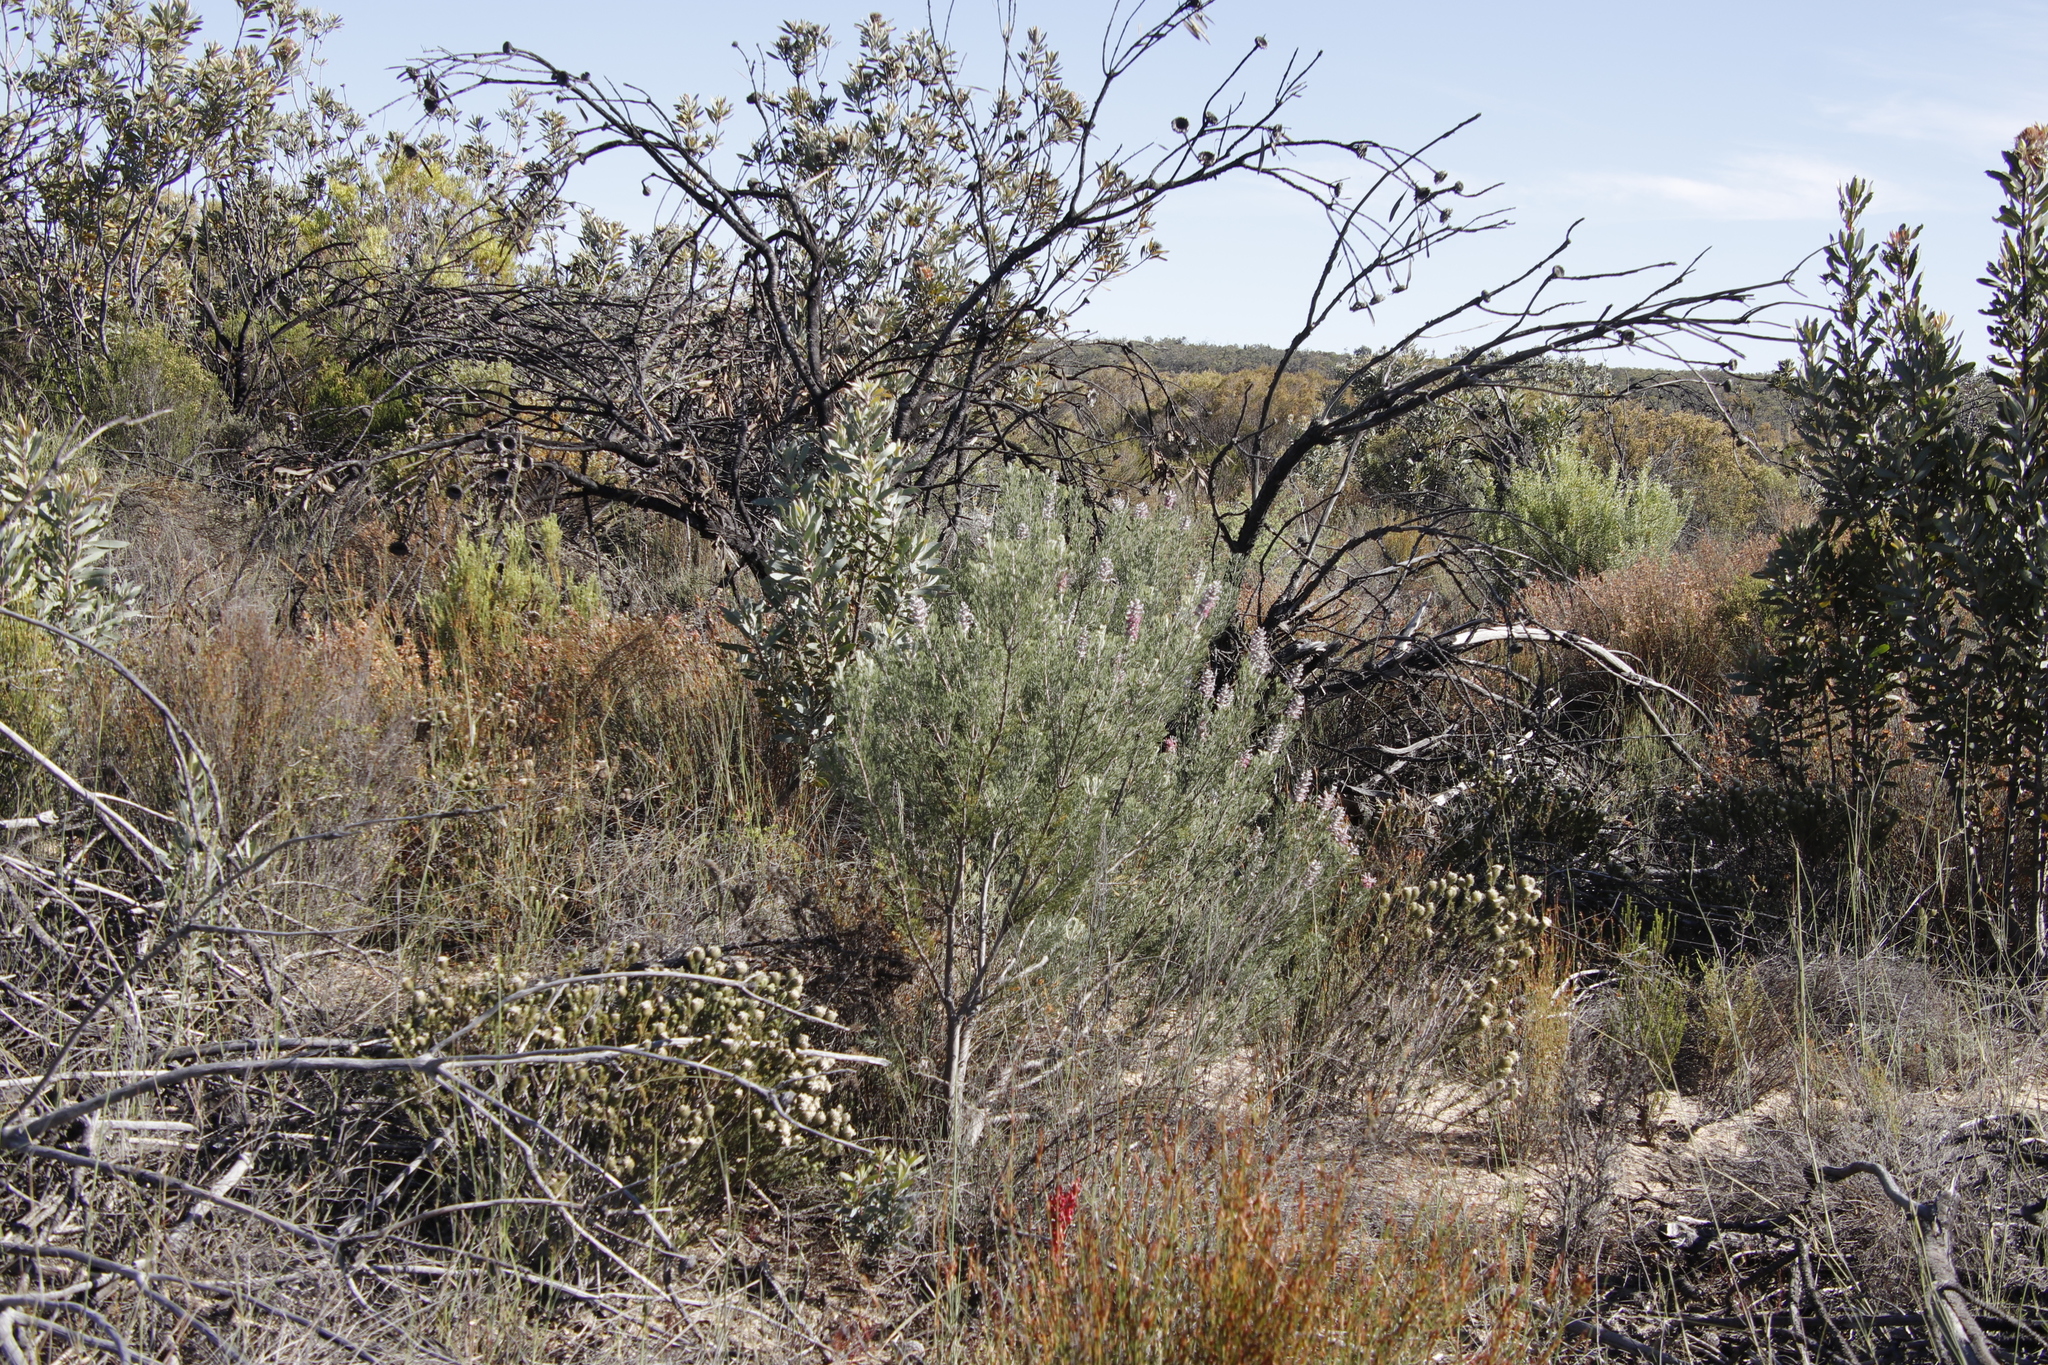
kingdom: Plantae
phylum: Tracheophyta
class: Magnoliopsida
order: Proteales
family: Proteaceae
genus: Paranomus
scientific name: Paranomus bracteolaris
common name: Bokkeveld tree sceptre
